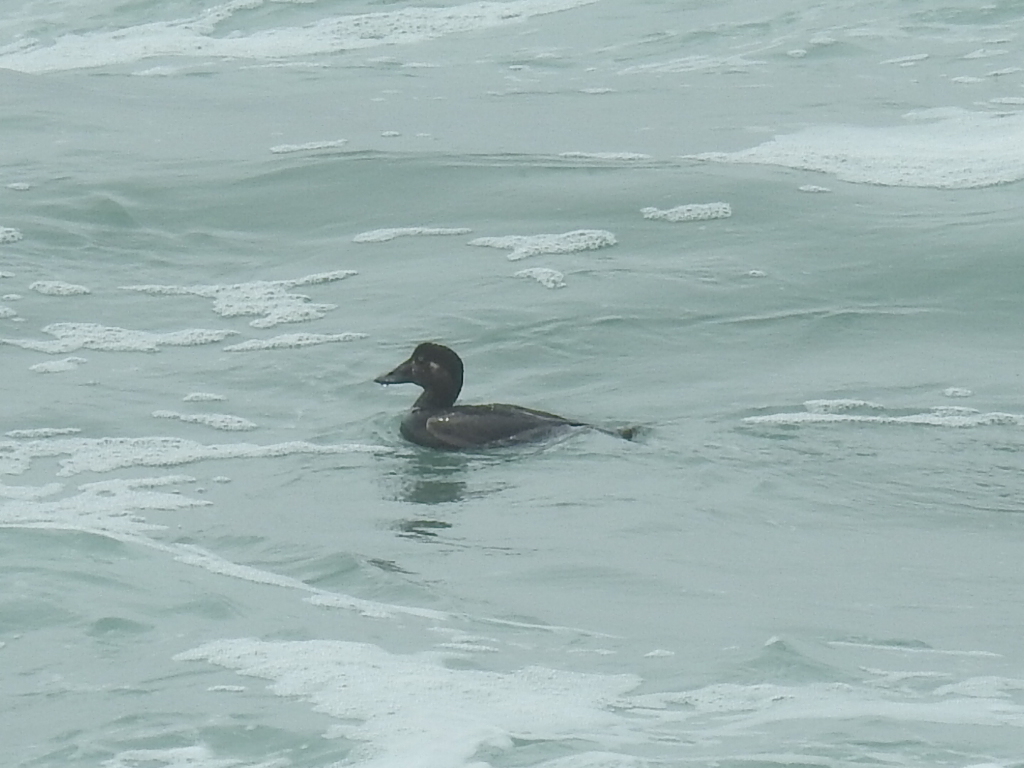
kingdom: Animalia
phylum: Chordata
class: Aves
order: Anseriformes
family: Anatidae
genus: Melanitta
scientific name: Melanitta perspicillata
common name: Surf scoter
